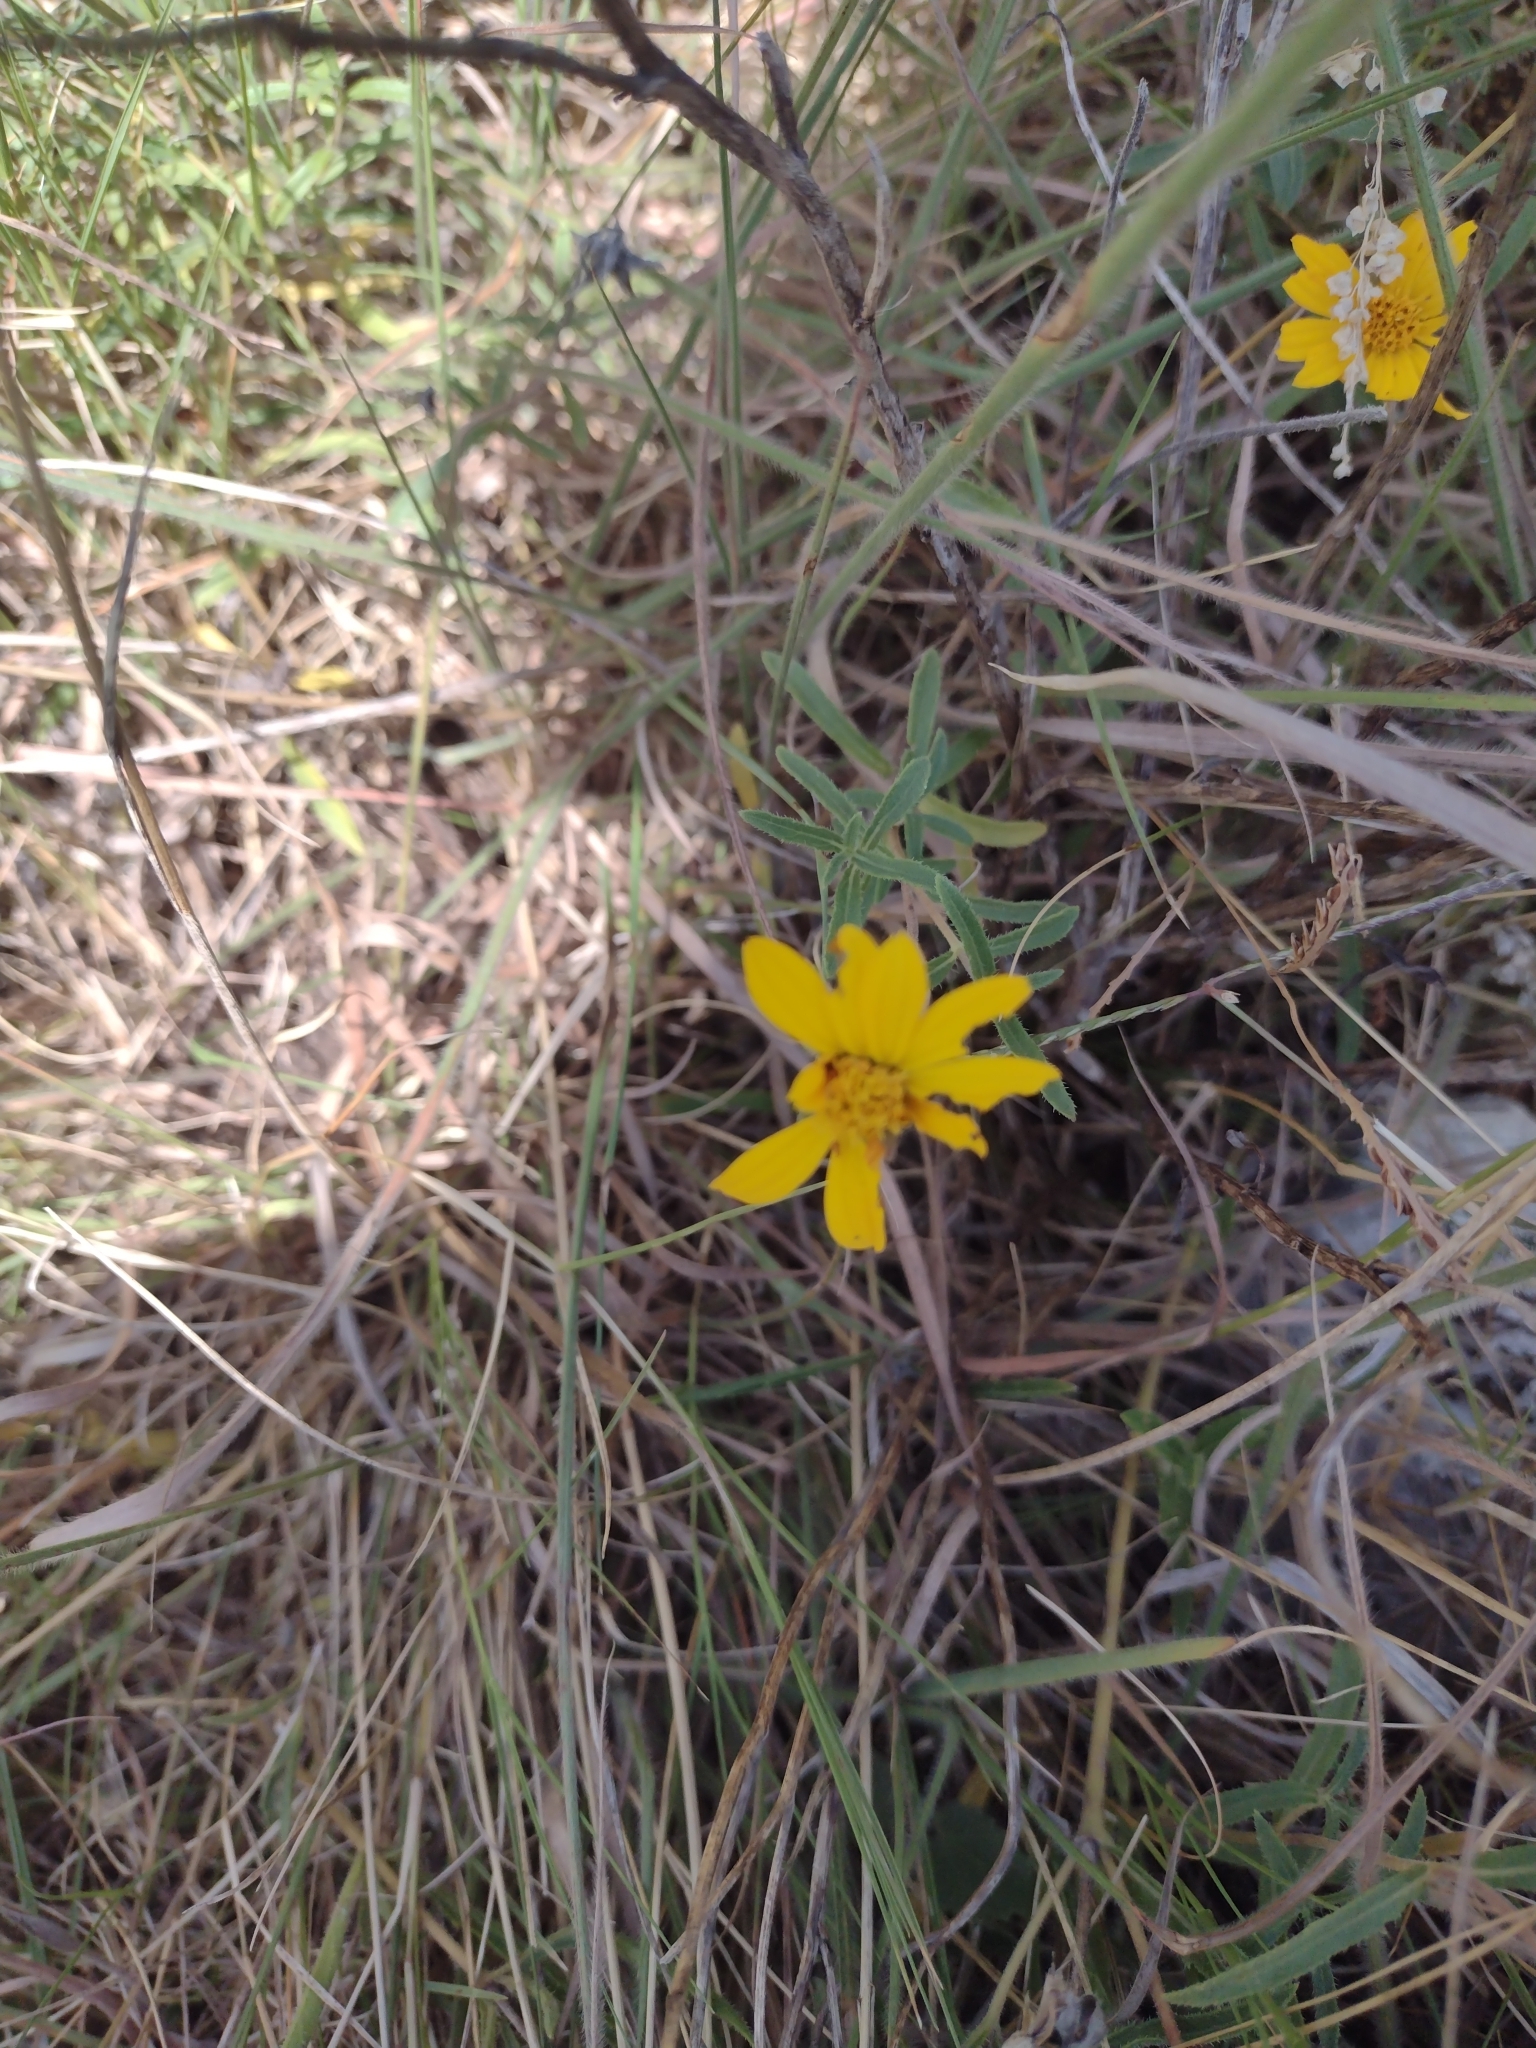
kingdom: Plantae
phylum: Tracheophyta
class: Magnoliopsida
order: Asterales
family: Asteraceae
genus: Wedelia
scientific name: Wedelia montevidensis
